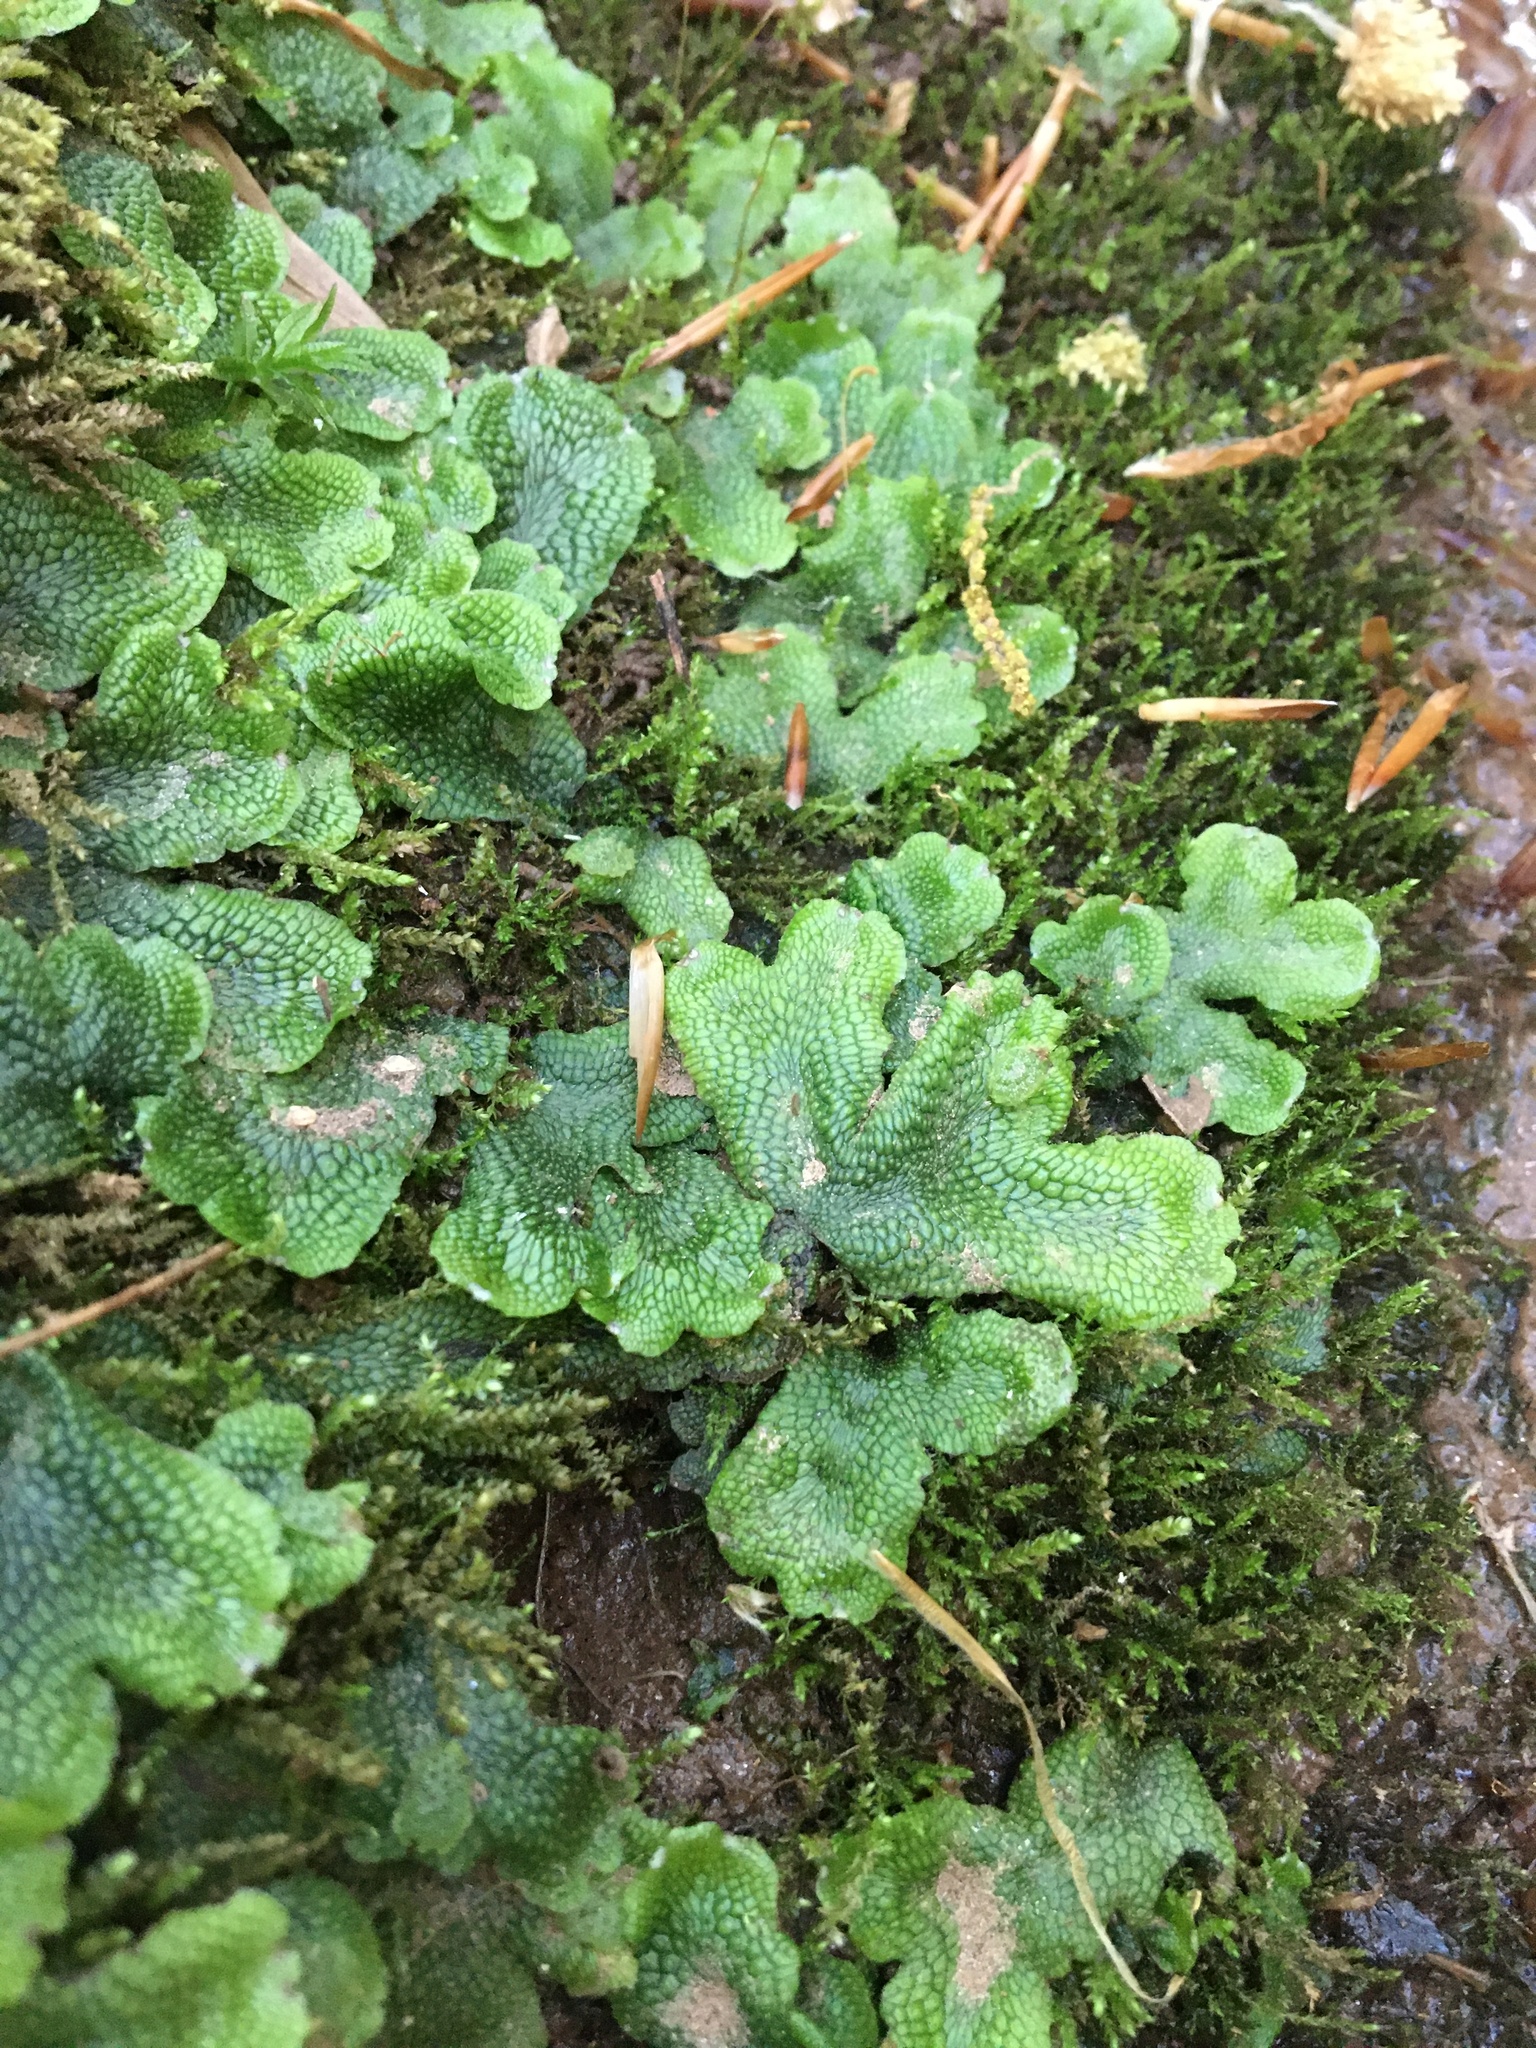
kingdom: Plantae
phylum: Marchantiophyta
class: Marchantiopsida
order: Marchantiales
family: Conocephalaceae
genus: Conocephalum
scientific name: Conocephalum salebrosum
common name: Cat-tongue liverwort
